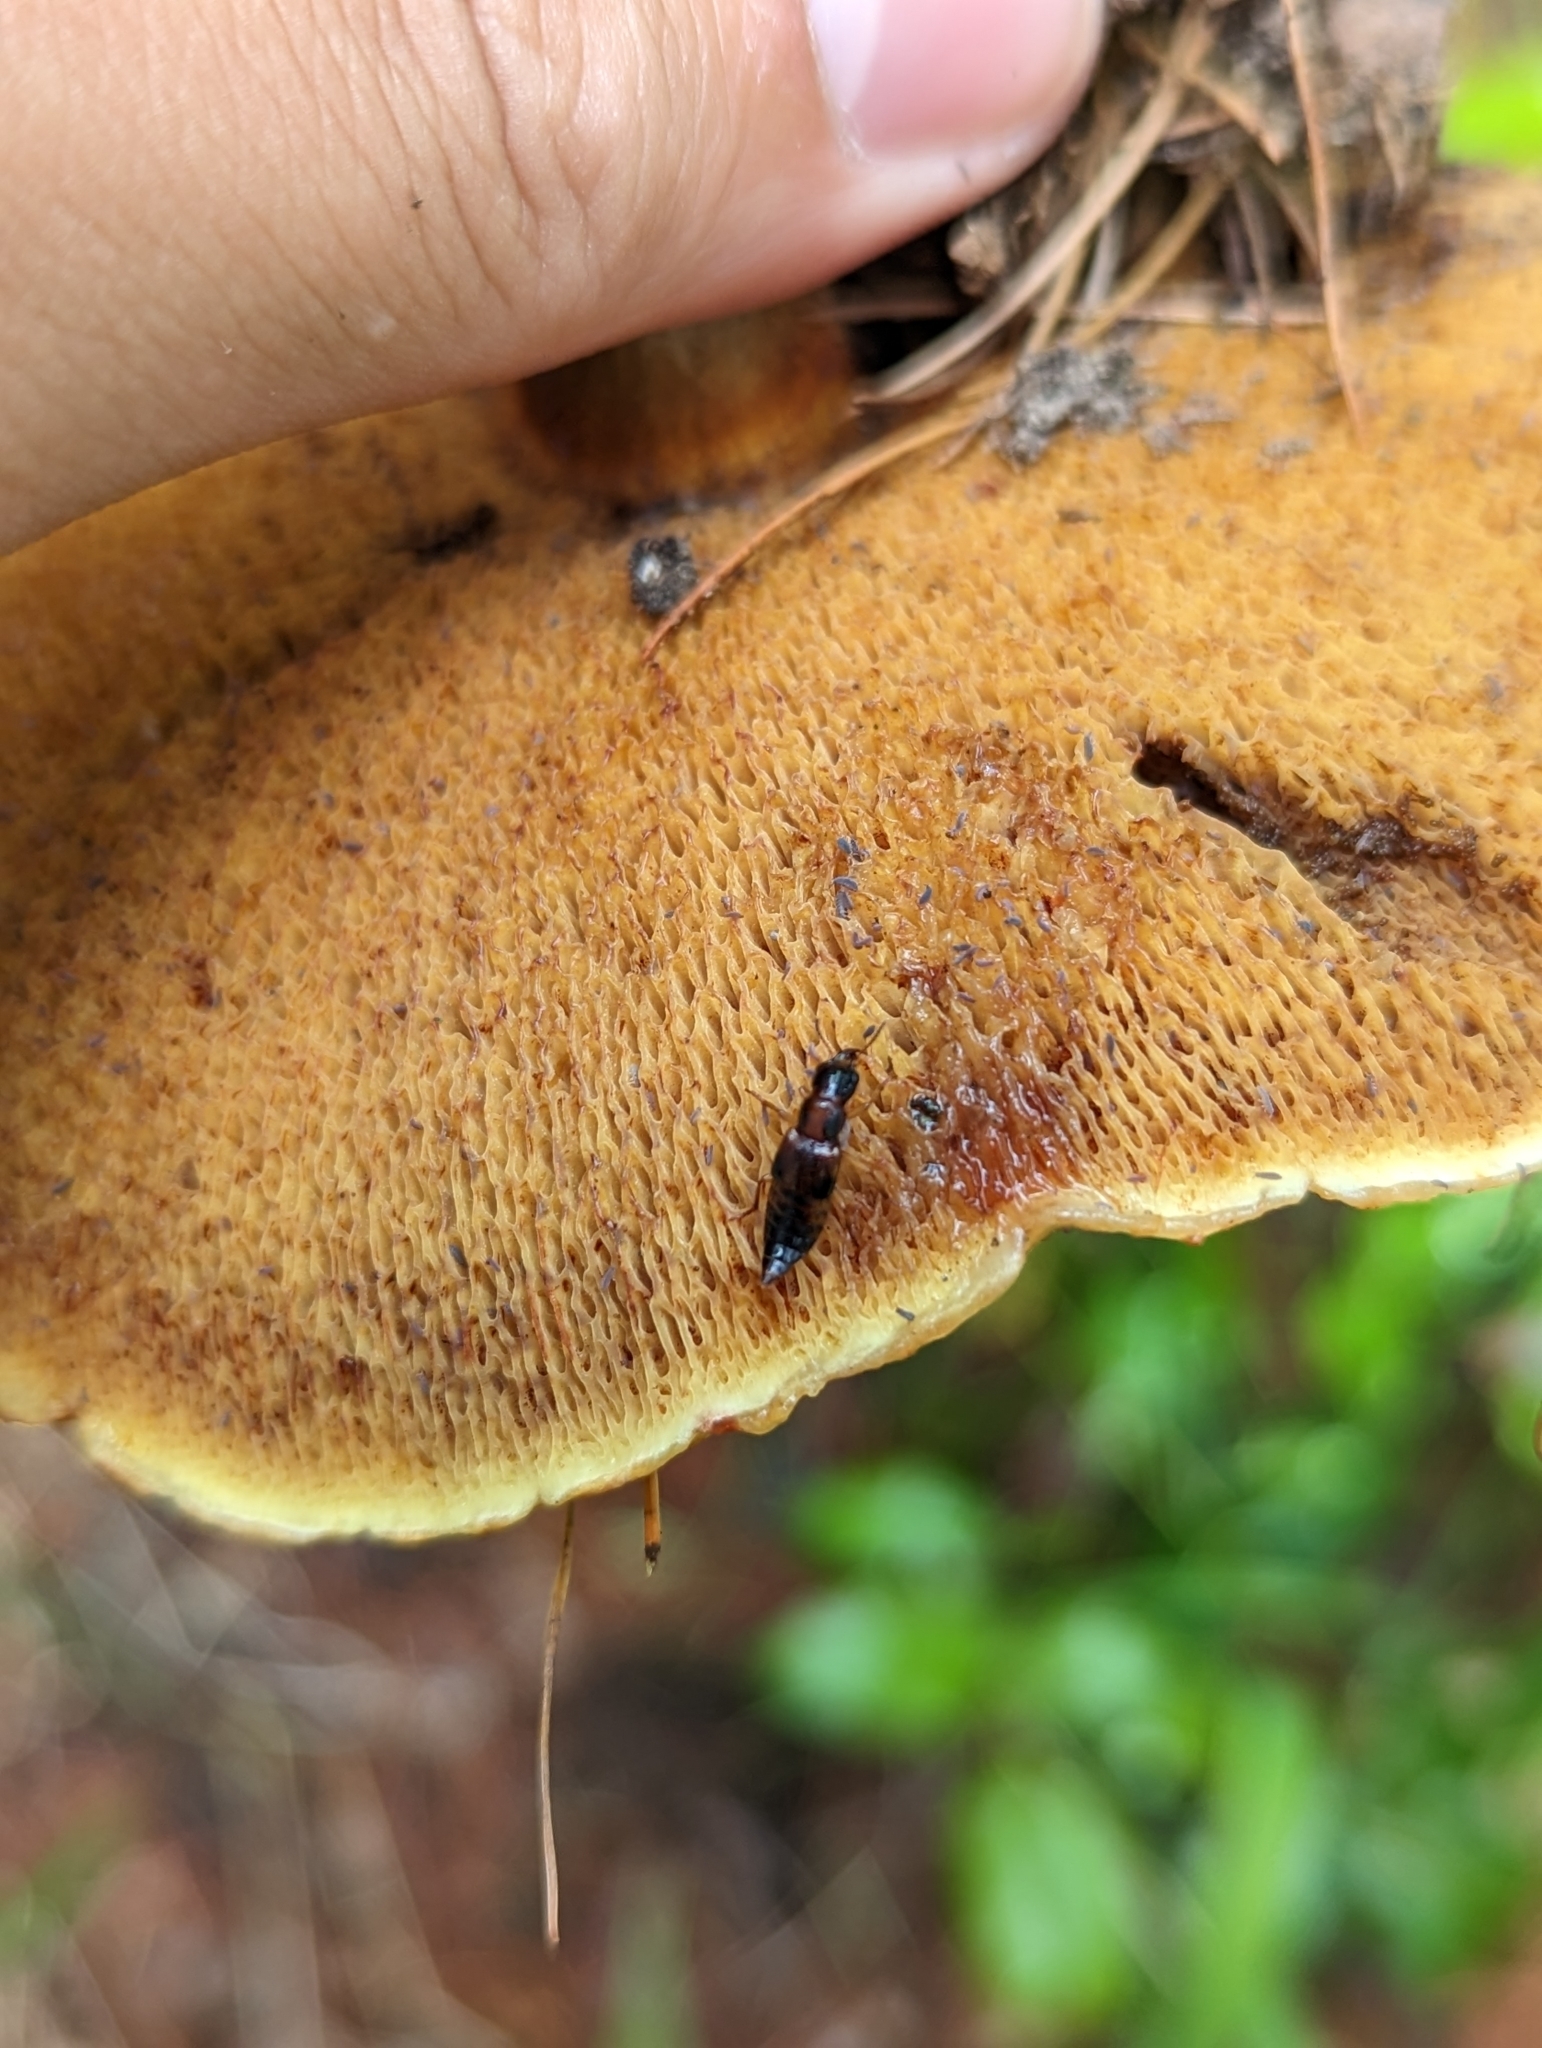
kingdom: Animalia
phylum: Arthropoda
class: Insecta
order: Coleoptera
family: Staphylinidae
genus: Pseudoxyporus
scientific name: Pseudoxyporus occipitalis
